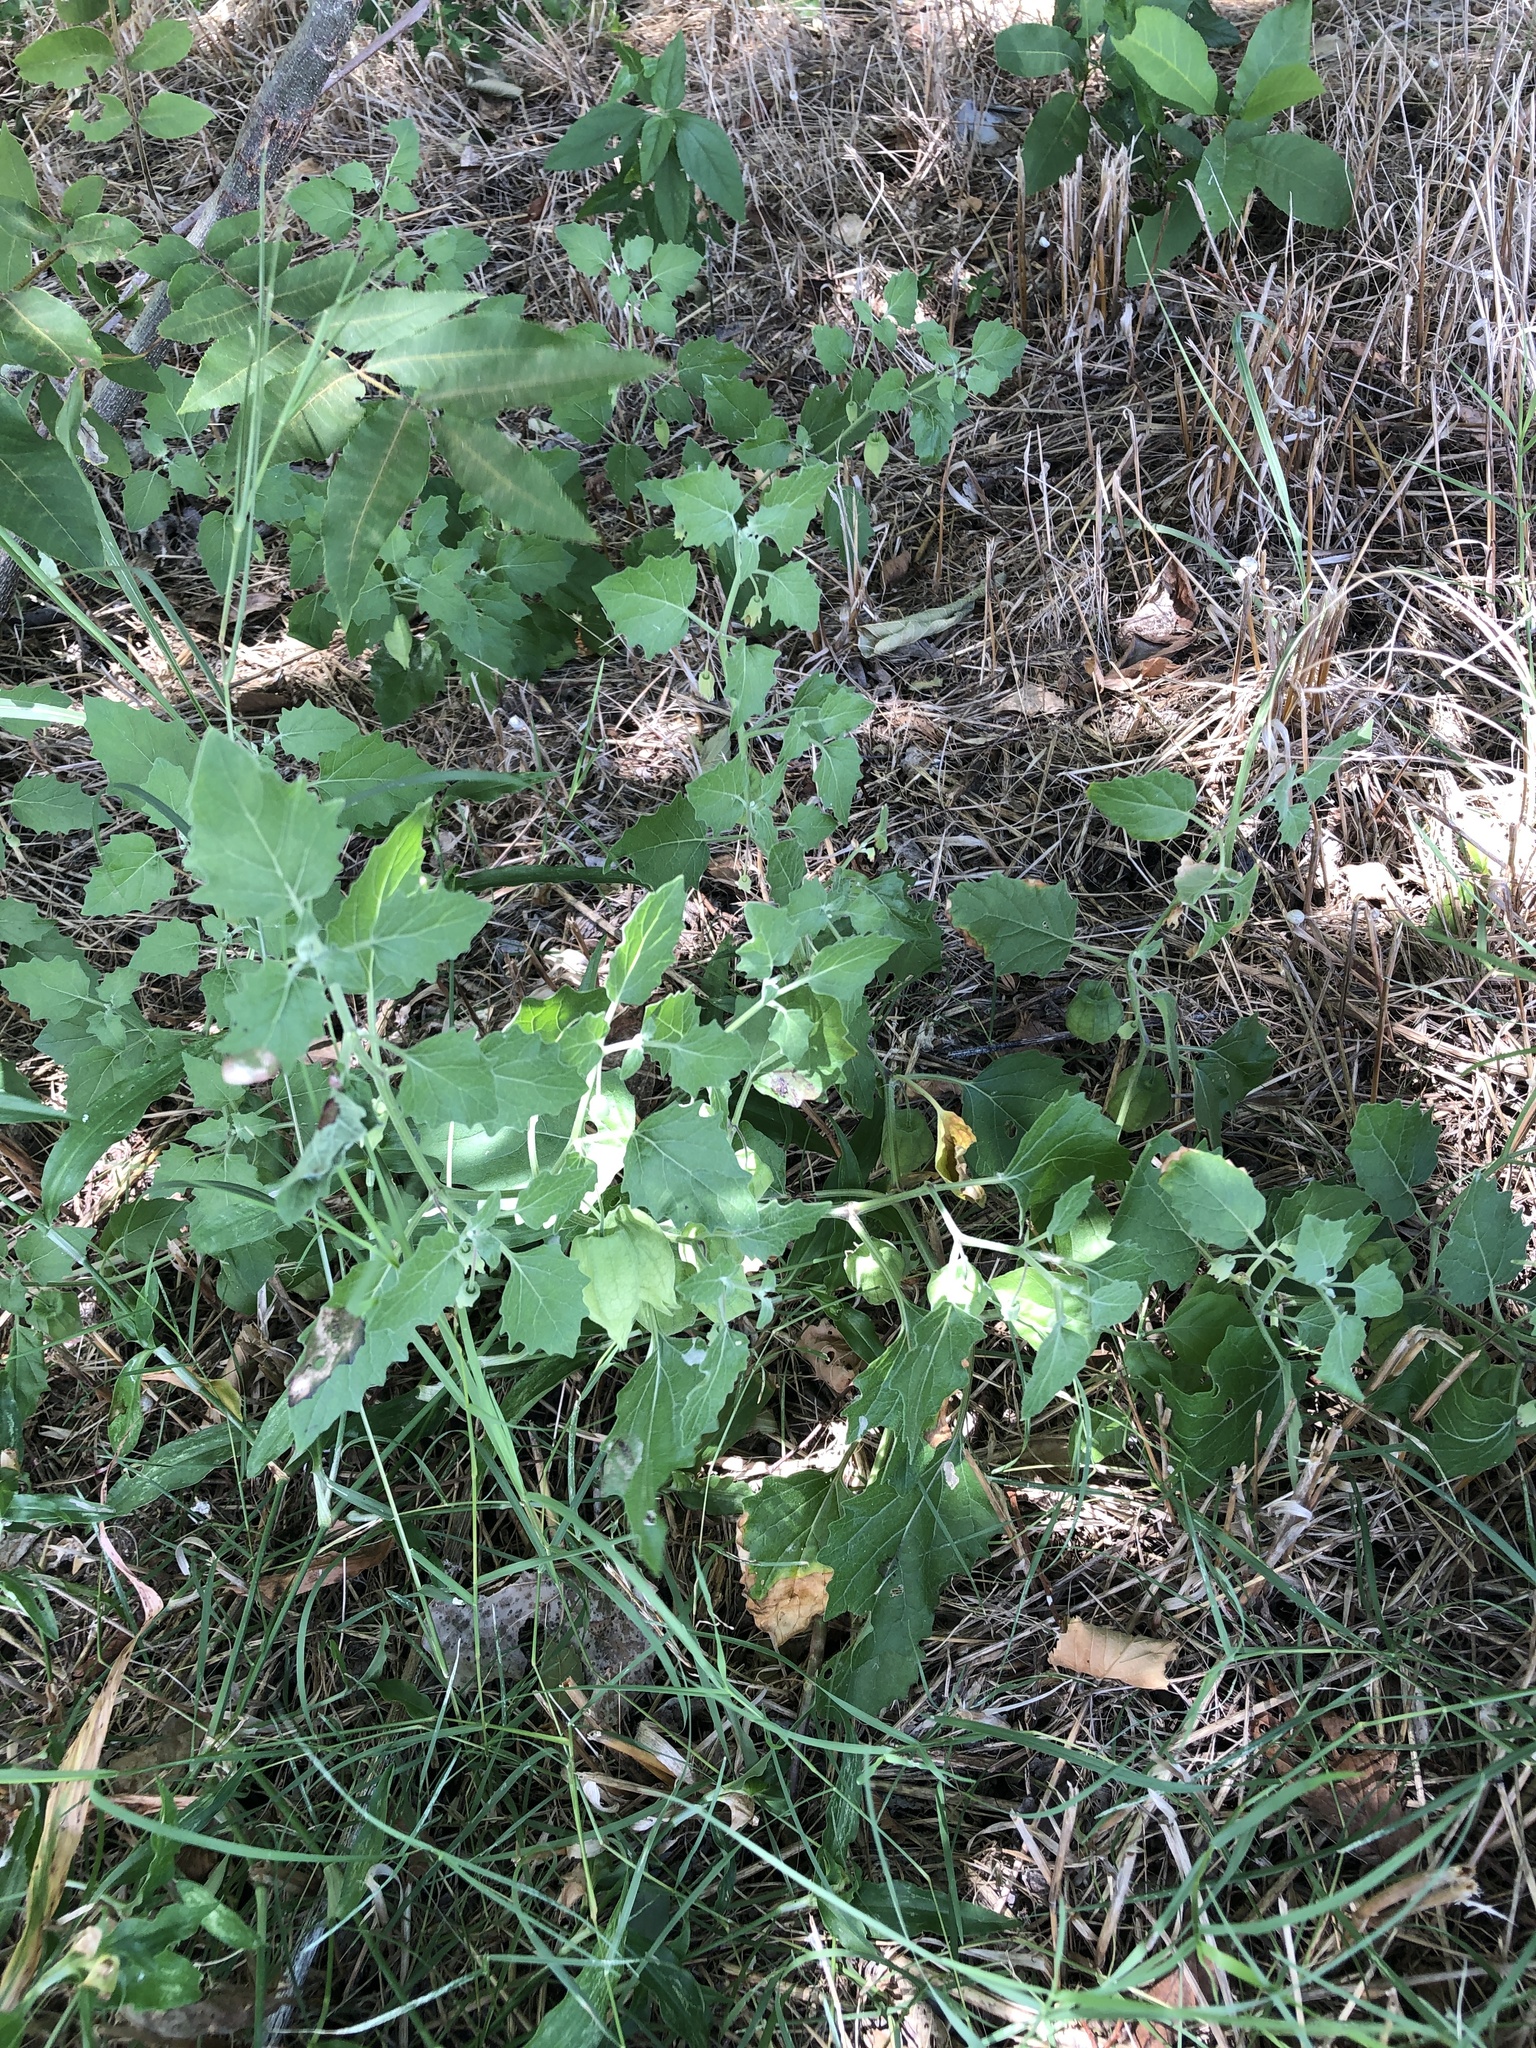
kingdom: Plantae
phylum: Tracheophyta
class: Magnoliopsida
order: Solanales
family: Solanaceae
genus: Physalis
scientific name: Physalis cinerascens
